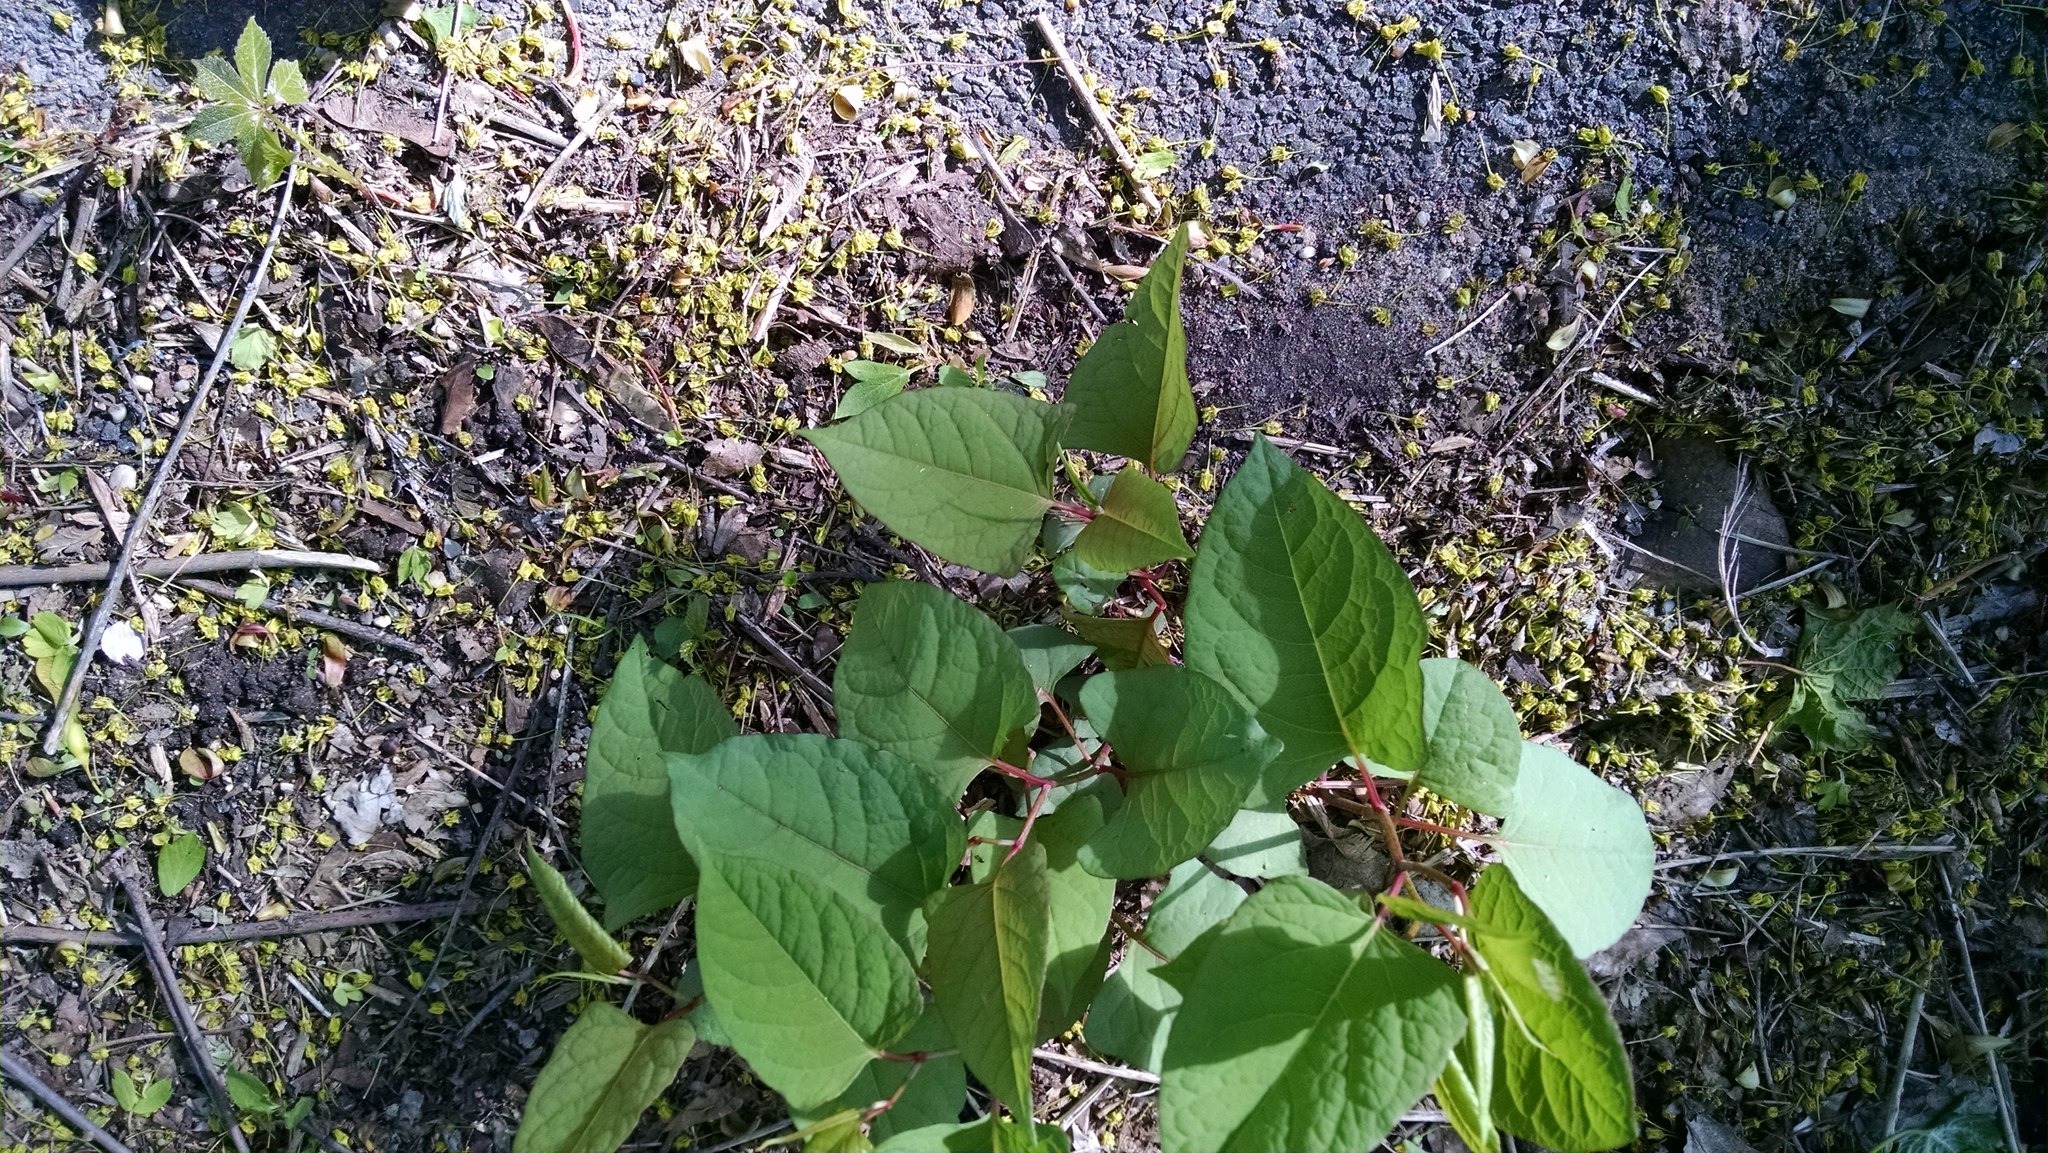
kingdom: Plantae
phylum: Tracheophyta
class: Magnoliopsida
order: Caryophyllales
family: Polygonaceae
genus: Reynoutria
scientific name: Reynoutria japonica
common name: Japanese knotweed
